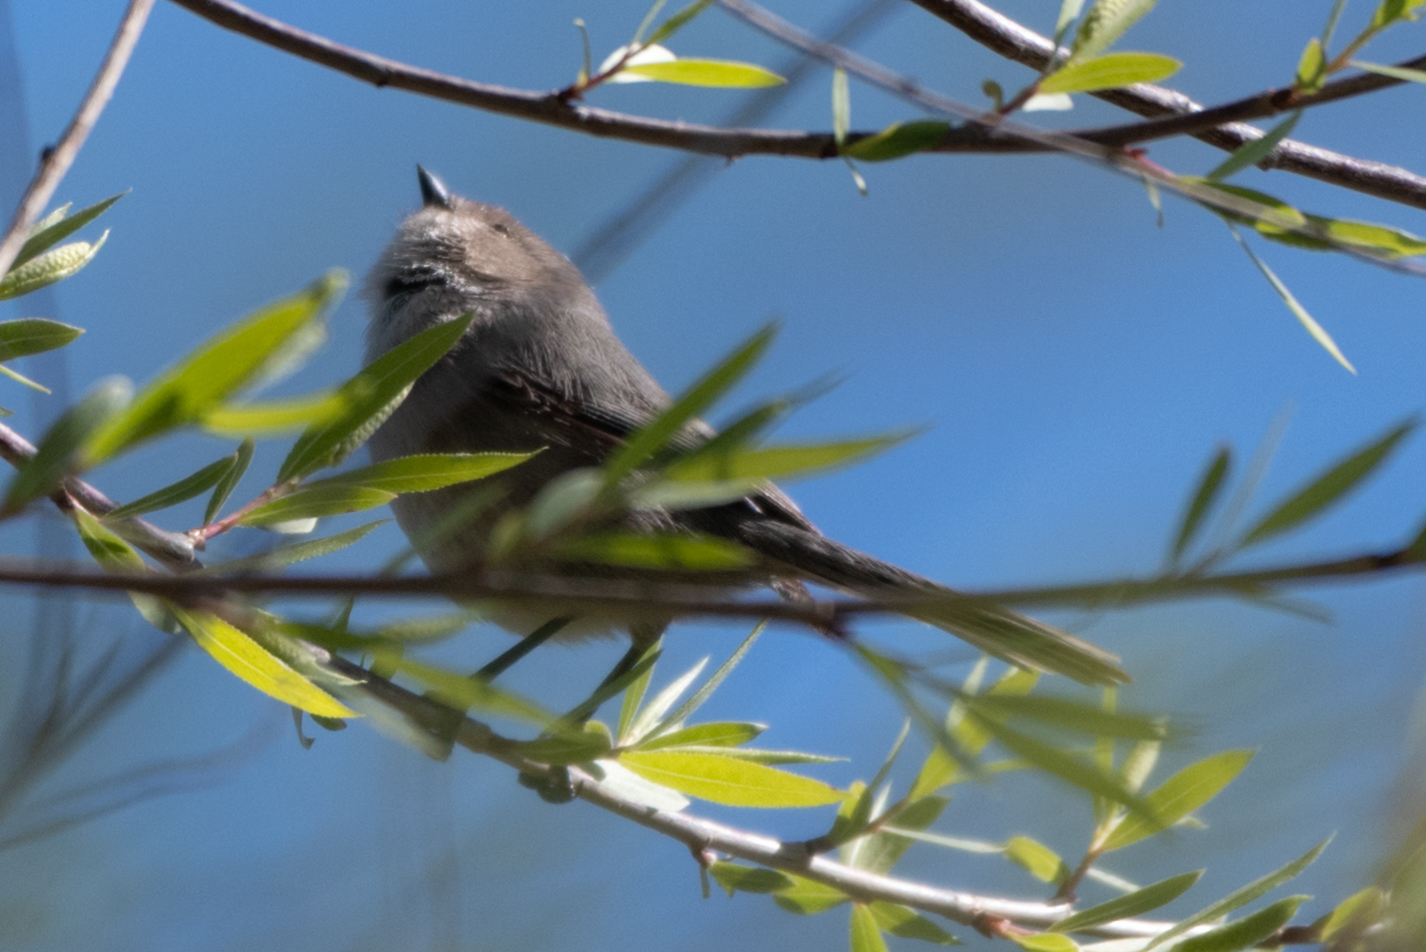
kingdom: Animalia
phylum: Chordata
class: Aves
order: Passeriformes
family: Aegithalidae
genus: Psaltriparus
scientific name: Psaltriparus minimus
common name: American bushtit
